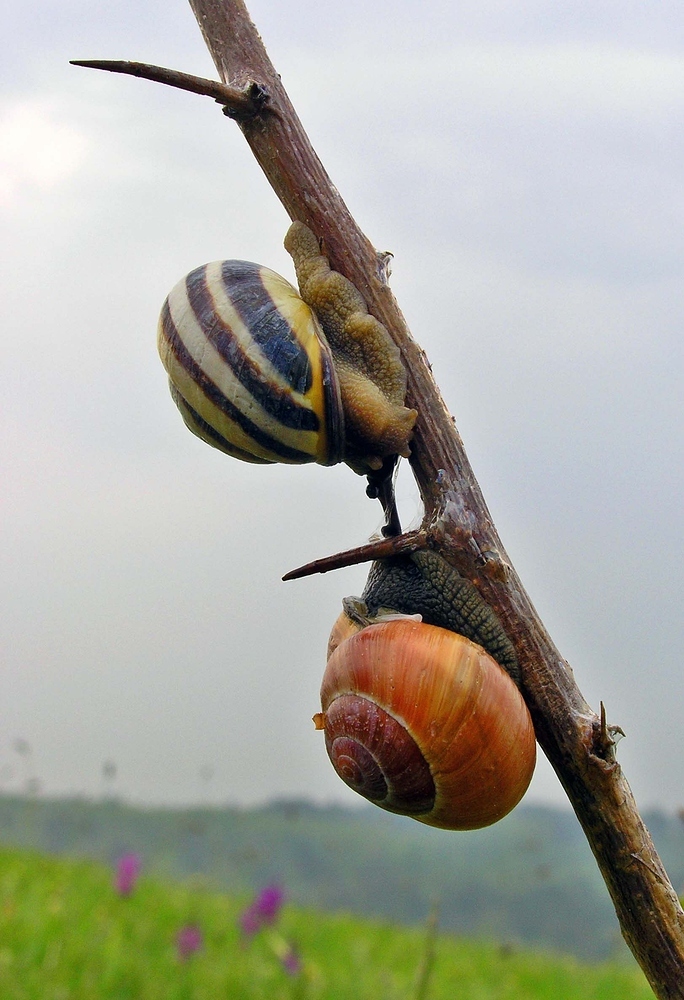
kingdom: Animalia
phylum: Mollusca
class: Gastropoda
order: Stylommatophora
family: Helicidae
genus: Cepaea
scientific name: Cepaea nemoralis
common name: Grovesnail
